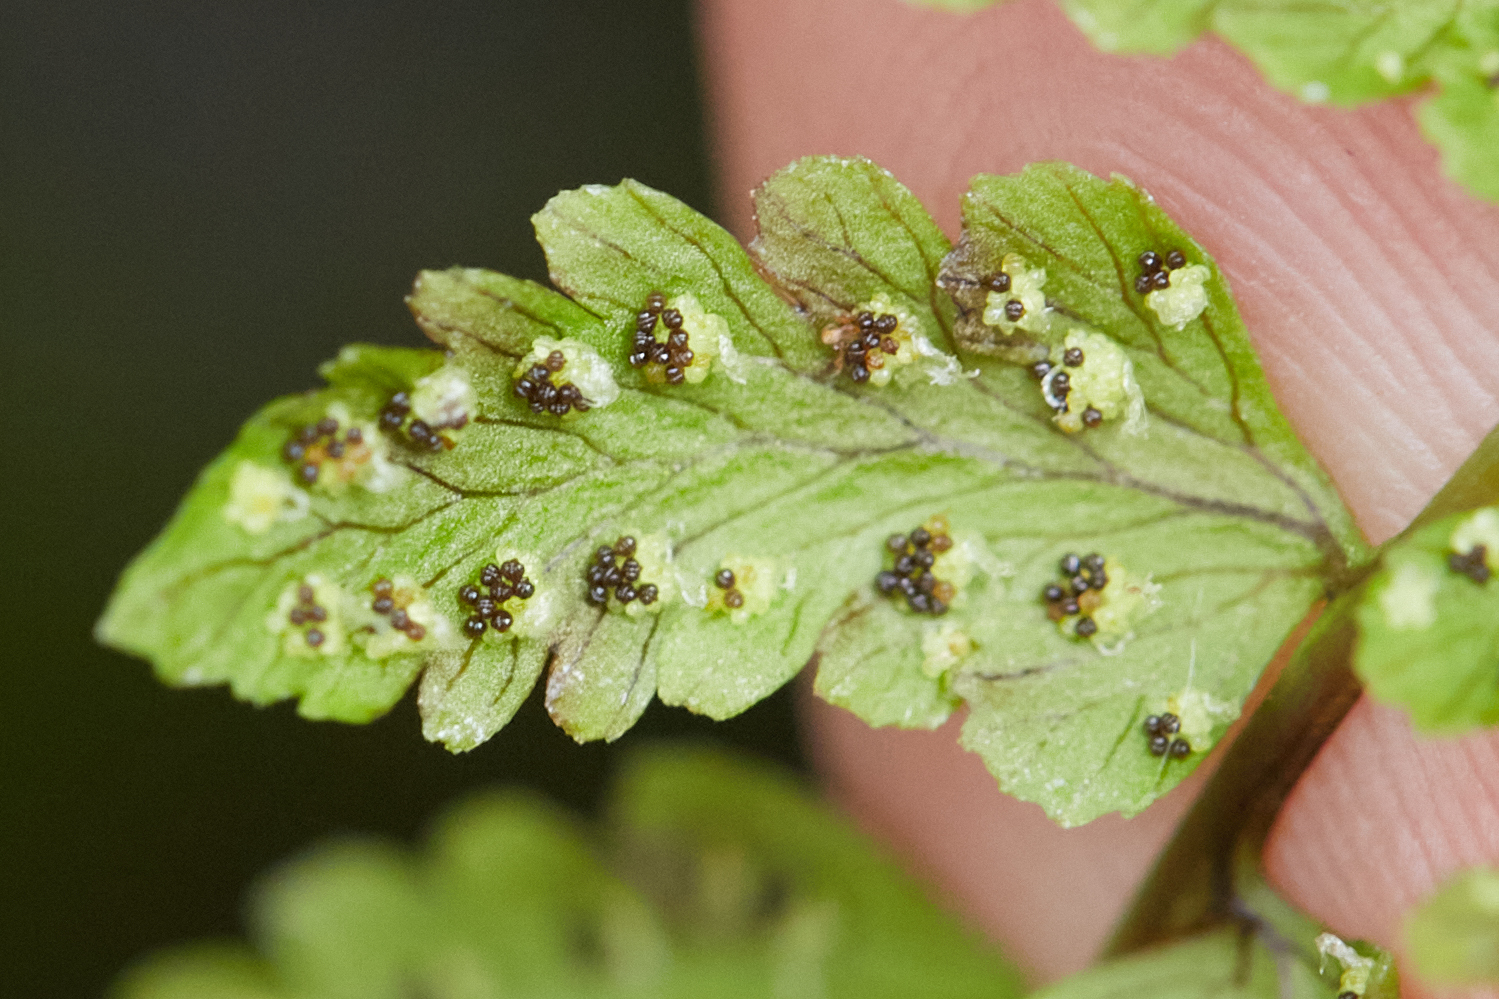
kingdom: Plantae
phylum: Tracheophyta
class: Polypodiopsida
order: Polypodiales
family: Cystopteridaceae
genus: Cystopteris
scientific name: Cystopteris fragilis
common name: Brittle bladder fern
